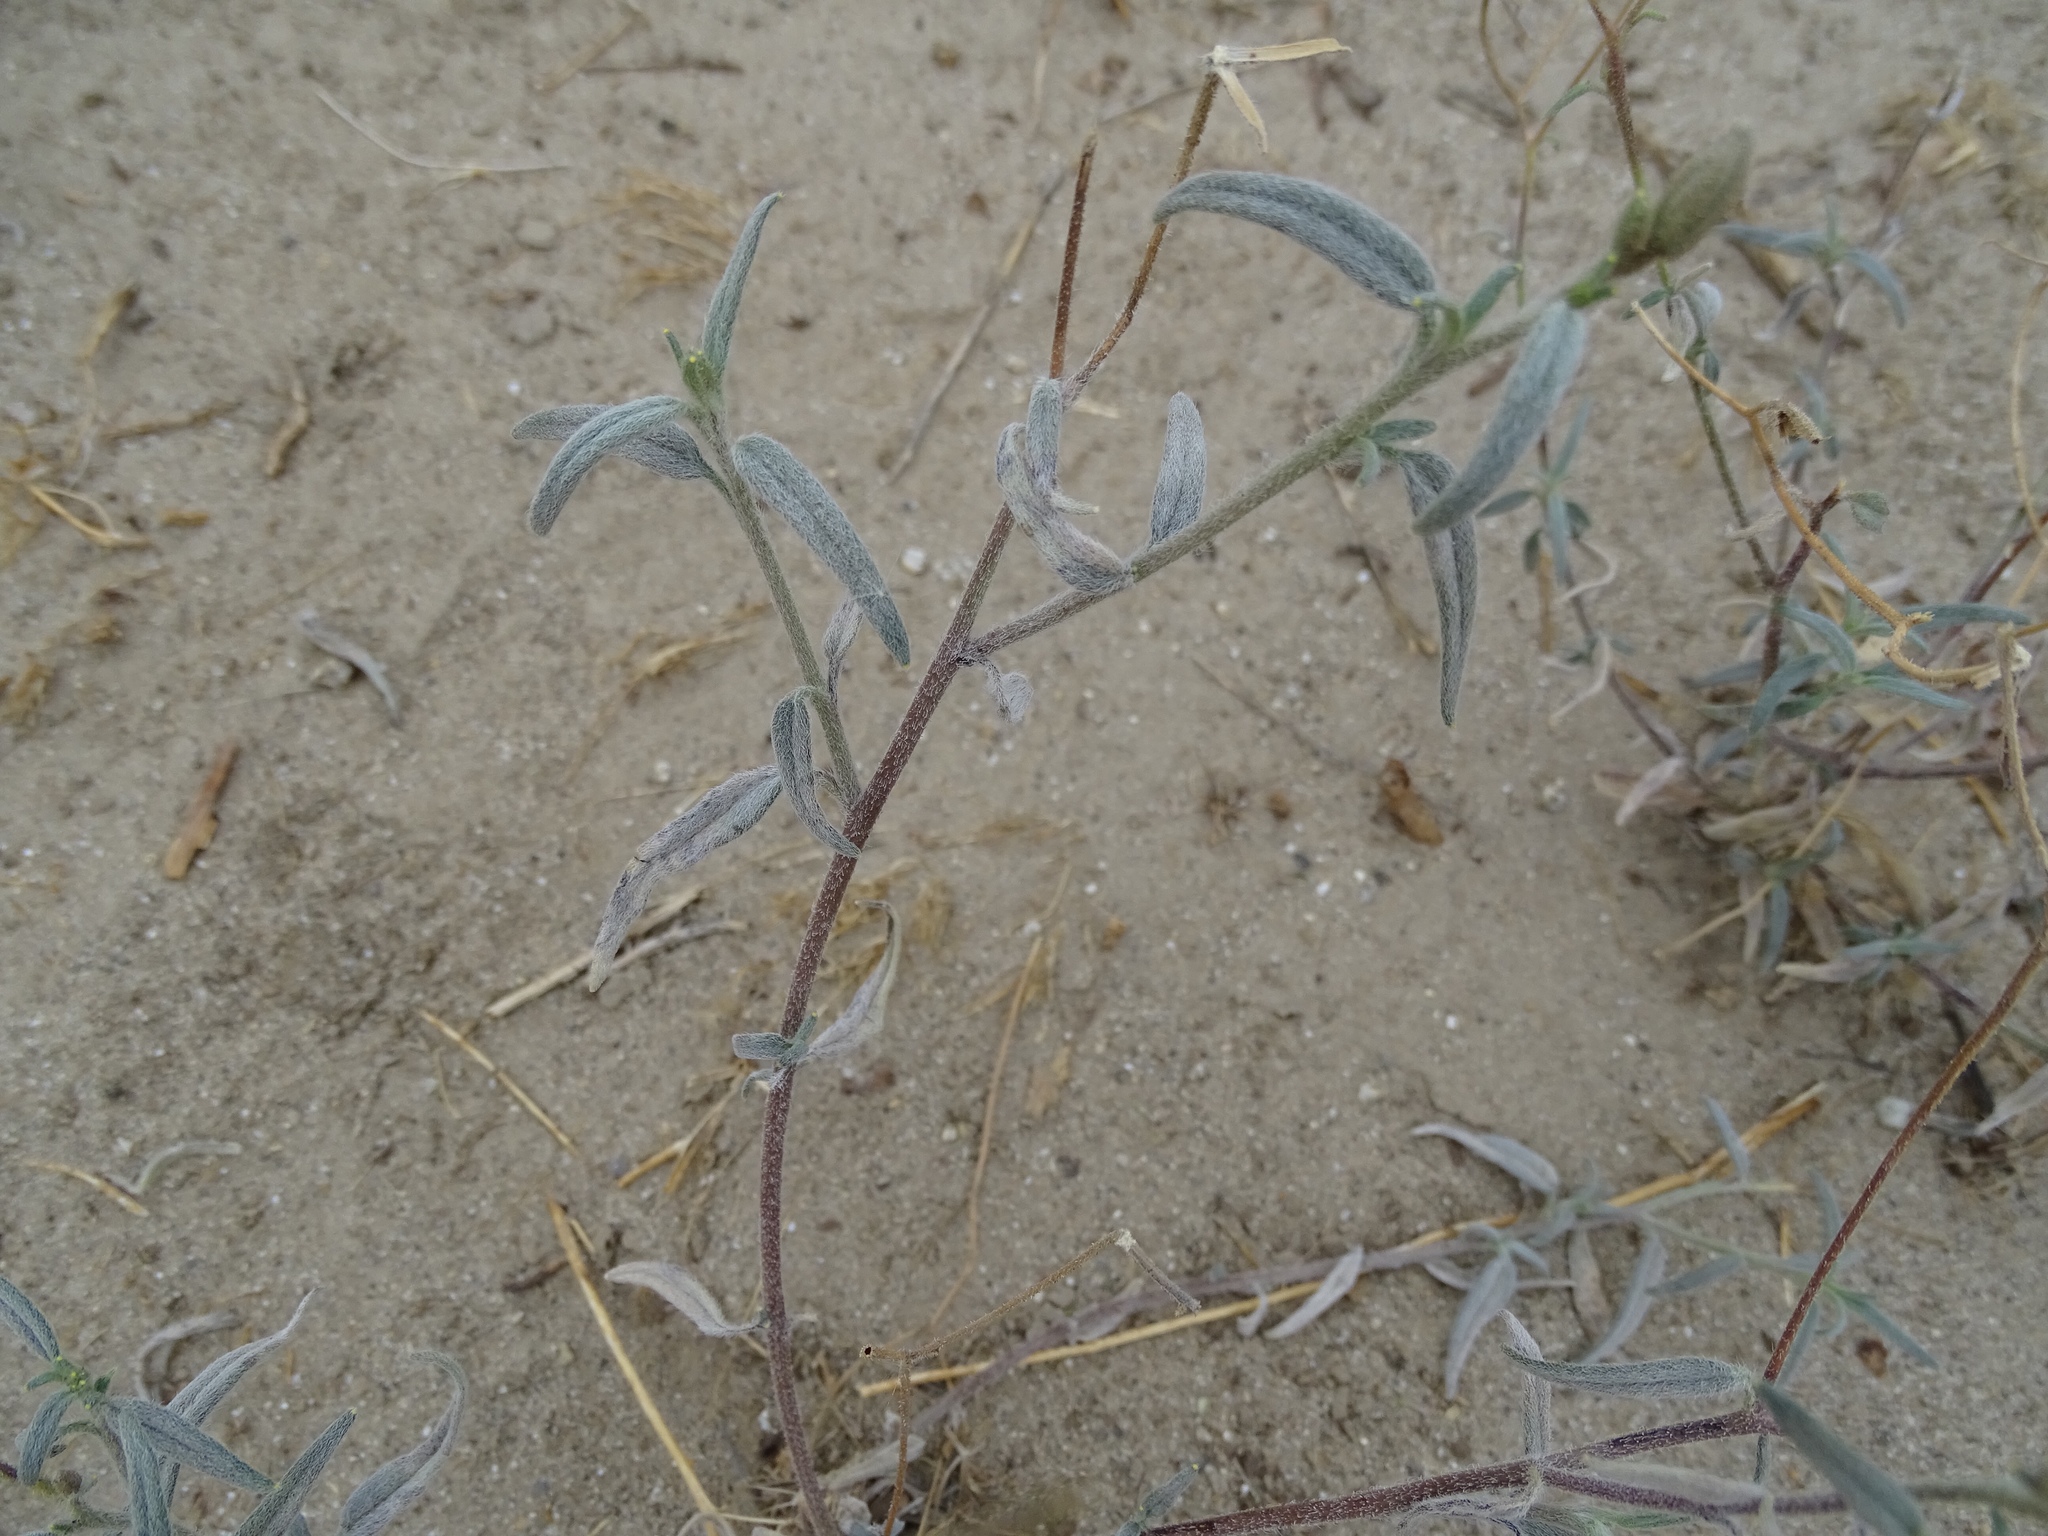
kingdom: Plantae
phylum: Tracheophyta
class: Magnoliopsida
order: Asterales
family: Asteraceae
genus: Palafoxia
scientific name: Palafoxia arida
